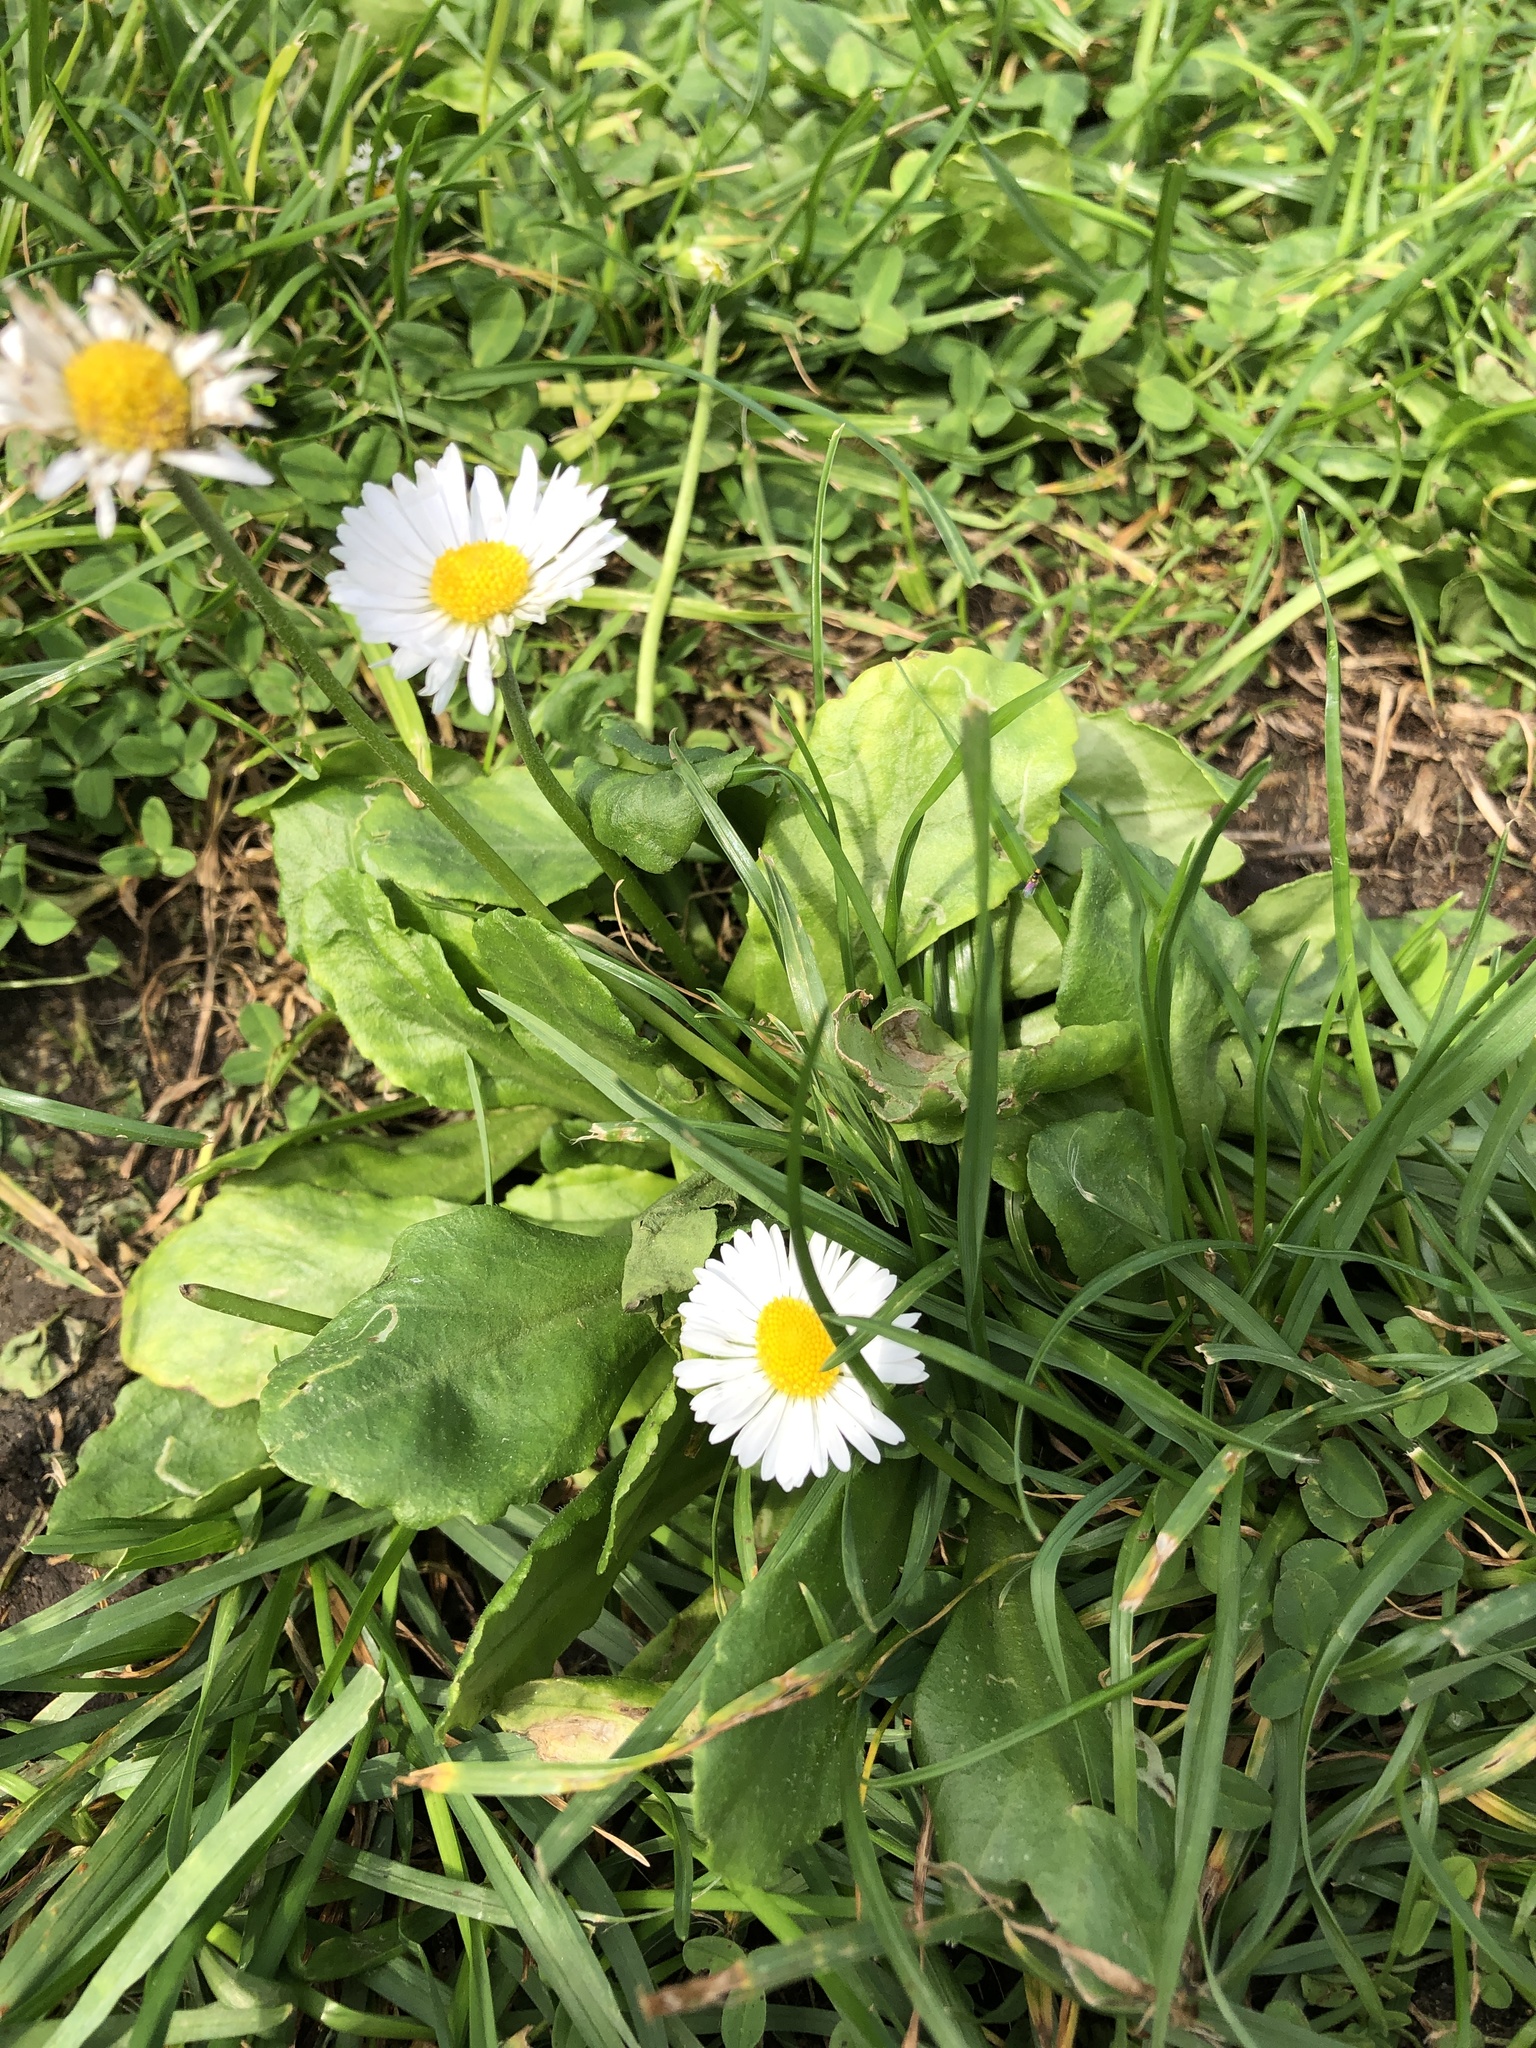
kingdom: Plantae
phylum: Tracheophyta
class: Magnoliopsida
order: Asterales
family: Asteraceae
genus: Bellis
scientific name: Bellis perennis
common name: Lawndaisy
